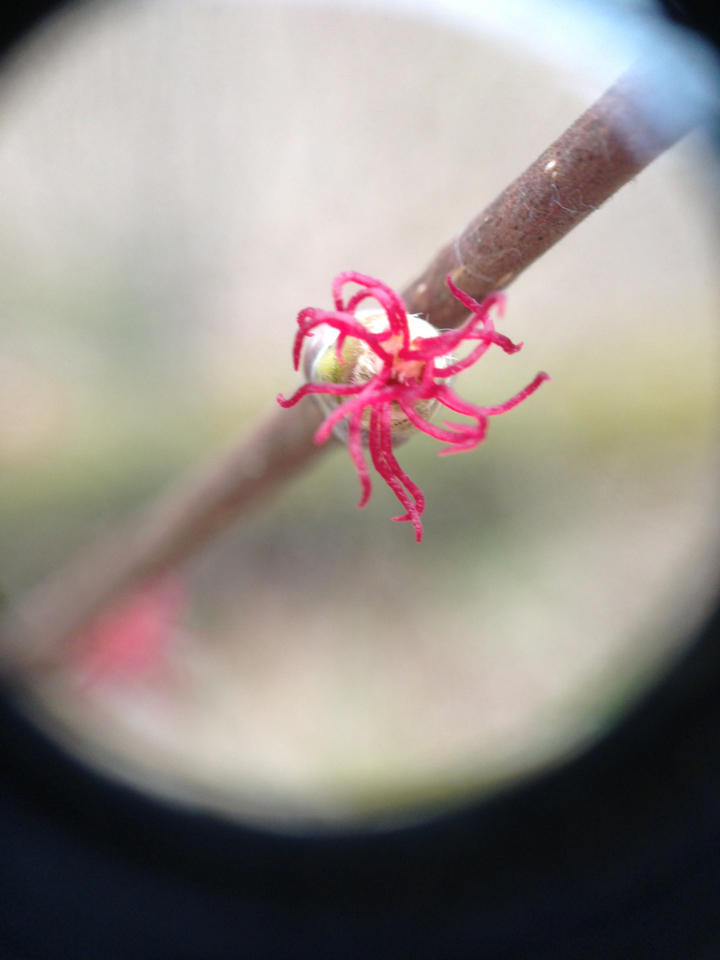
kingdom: Plantae
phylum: Tracheophyta
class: Magnoliopsida
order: Fagales
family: Betulaceae
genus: Corylus
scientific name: Corylus cornuta
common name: Beaked hazel
